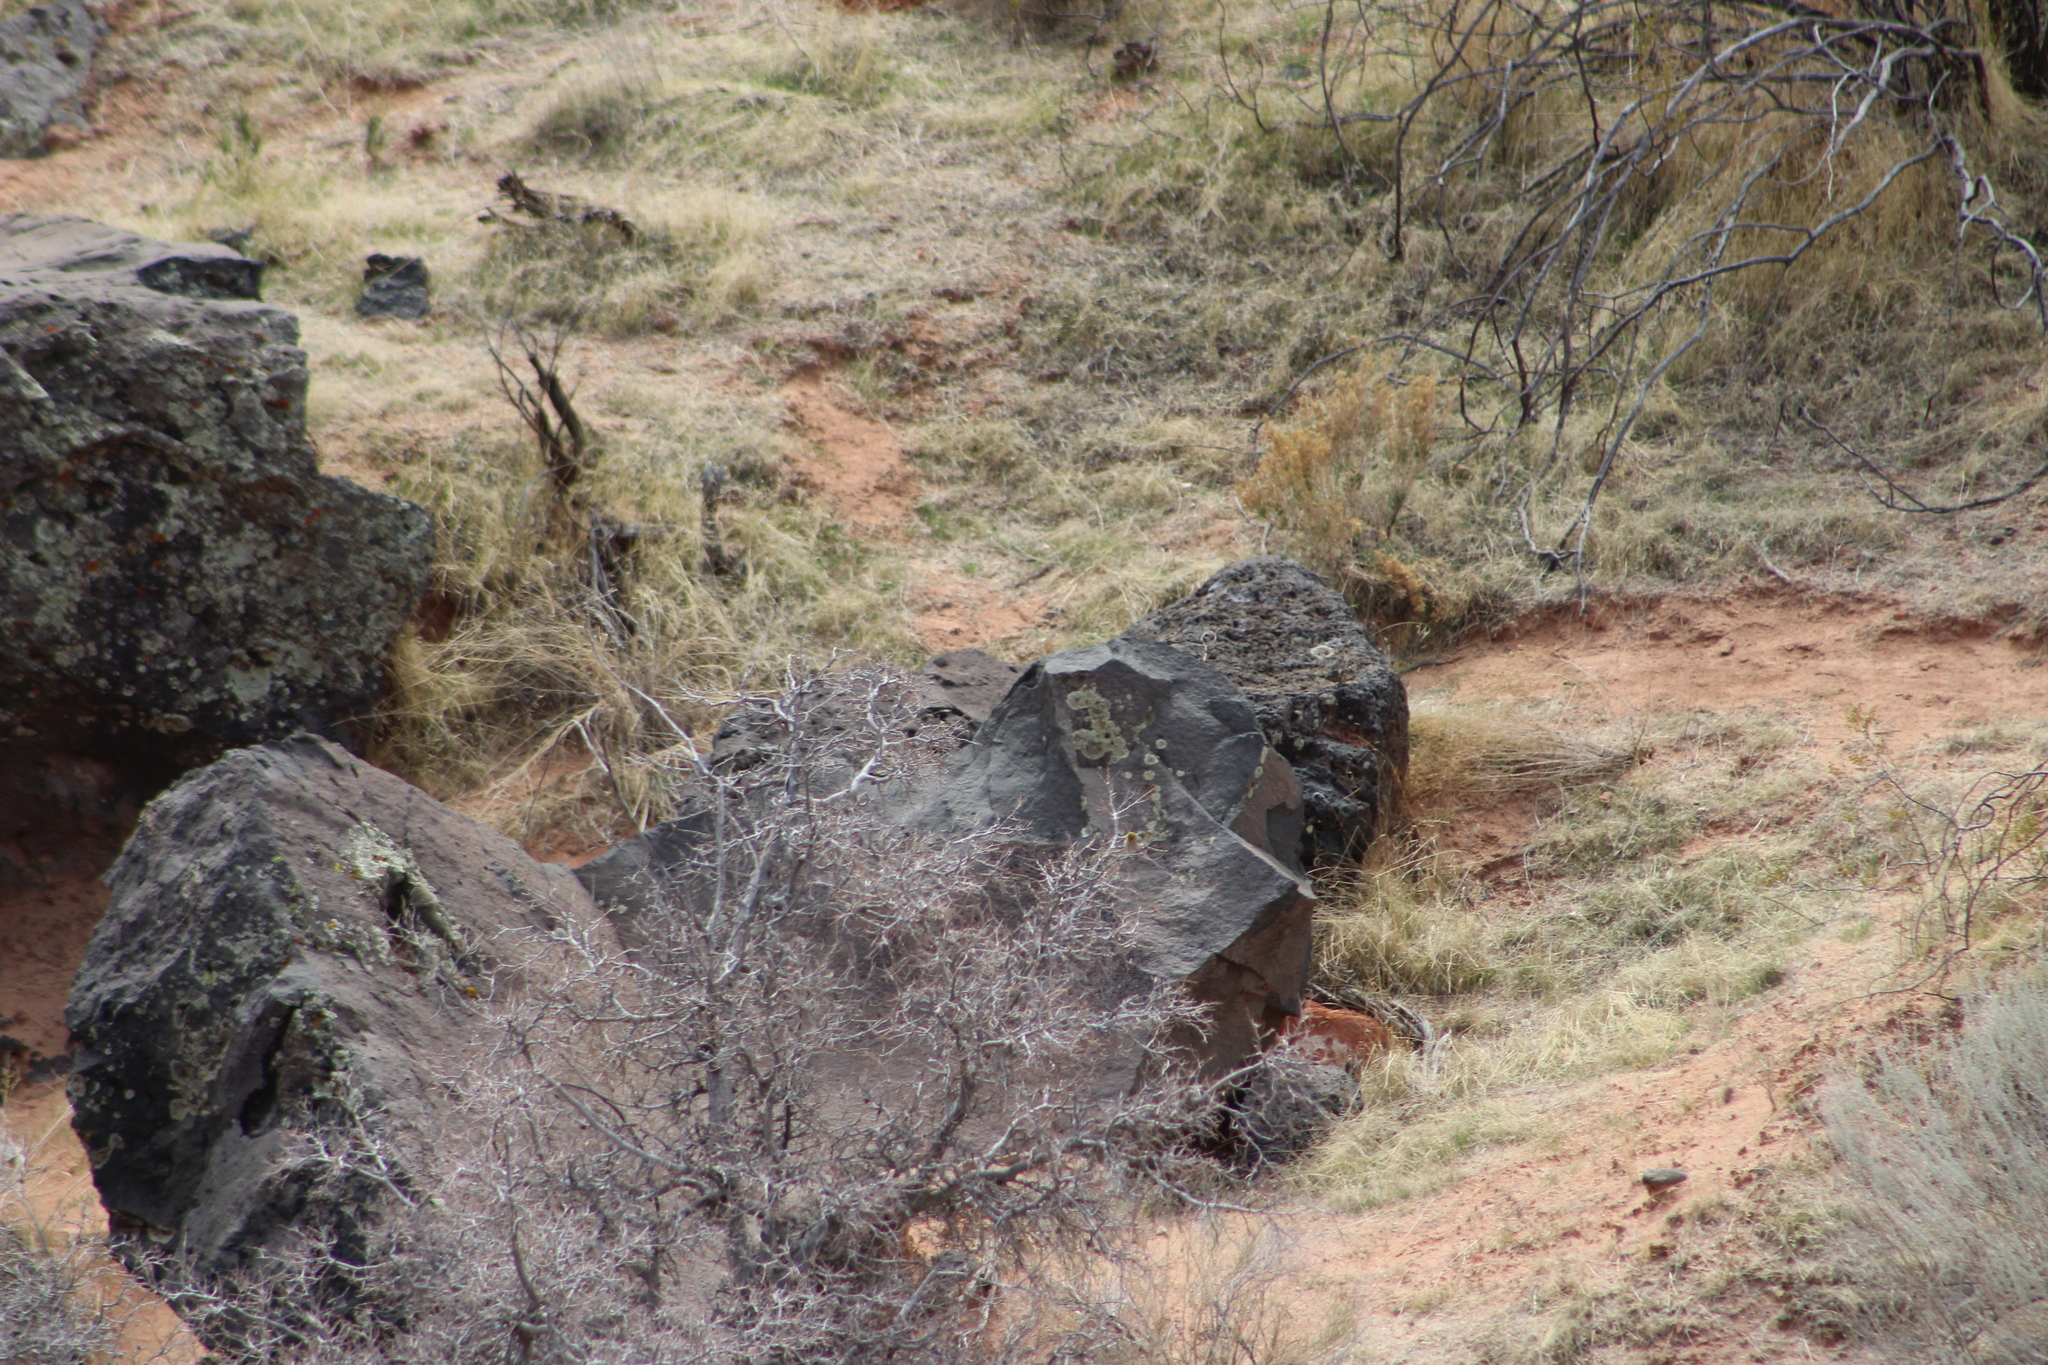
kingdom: Animalia
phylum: Chordata
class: Aves
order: Passeriformes
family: Remizidae
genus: Auriparus
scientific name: Auriparus flaviceps
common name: Verdin
